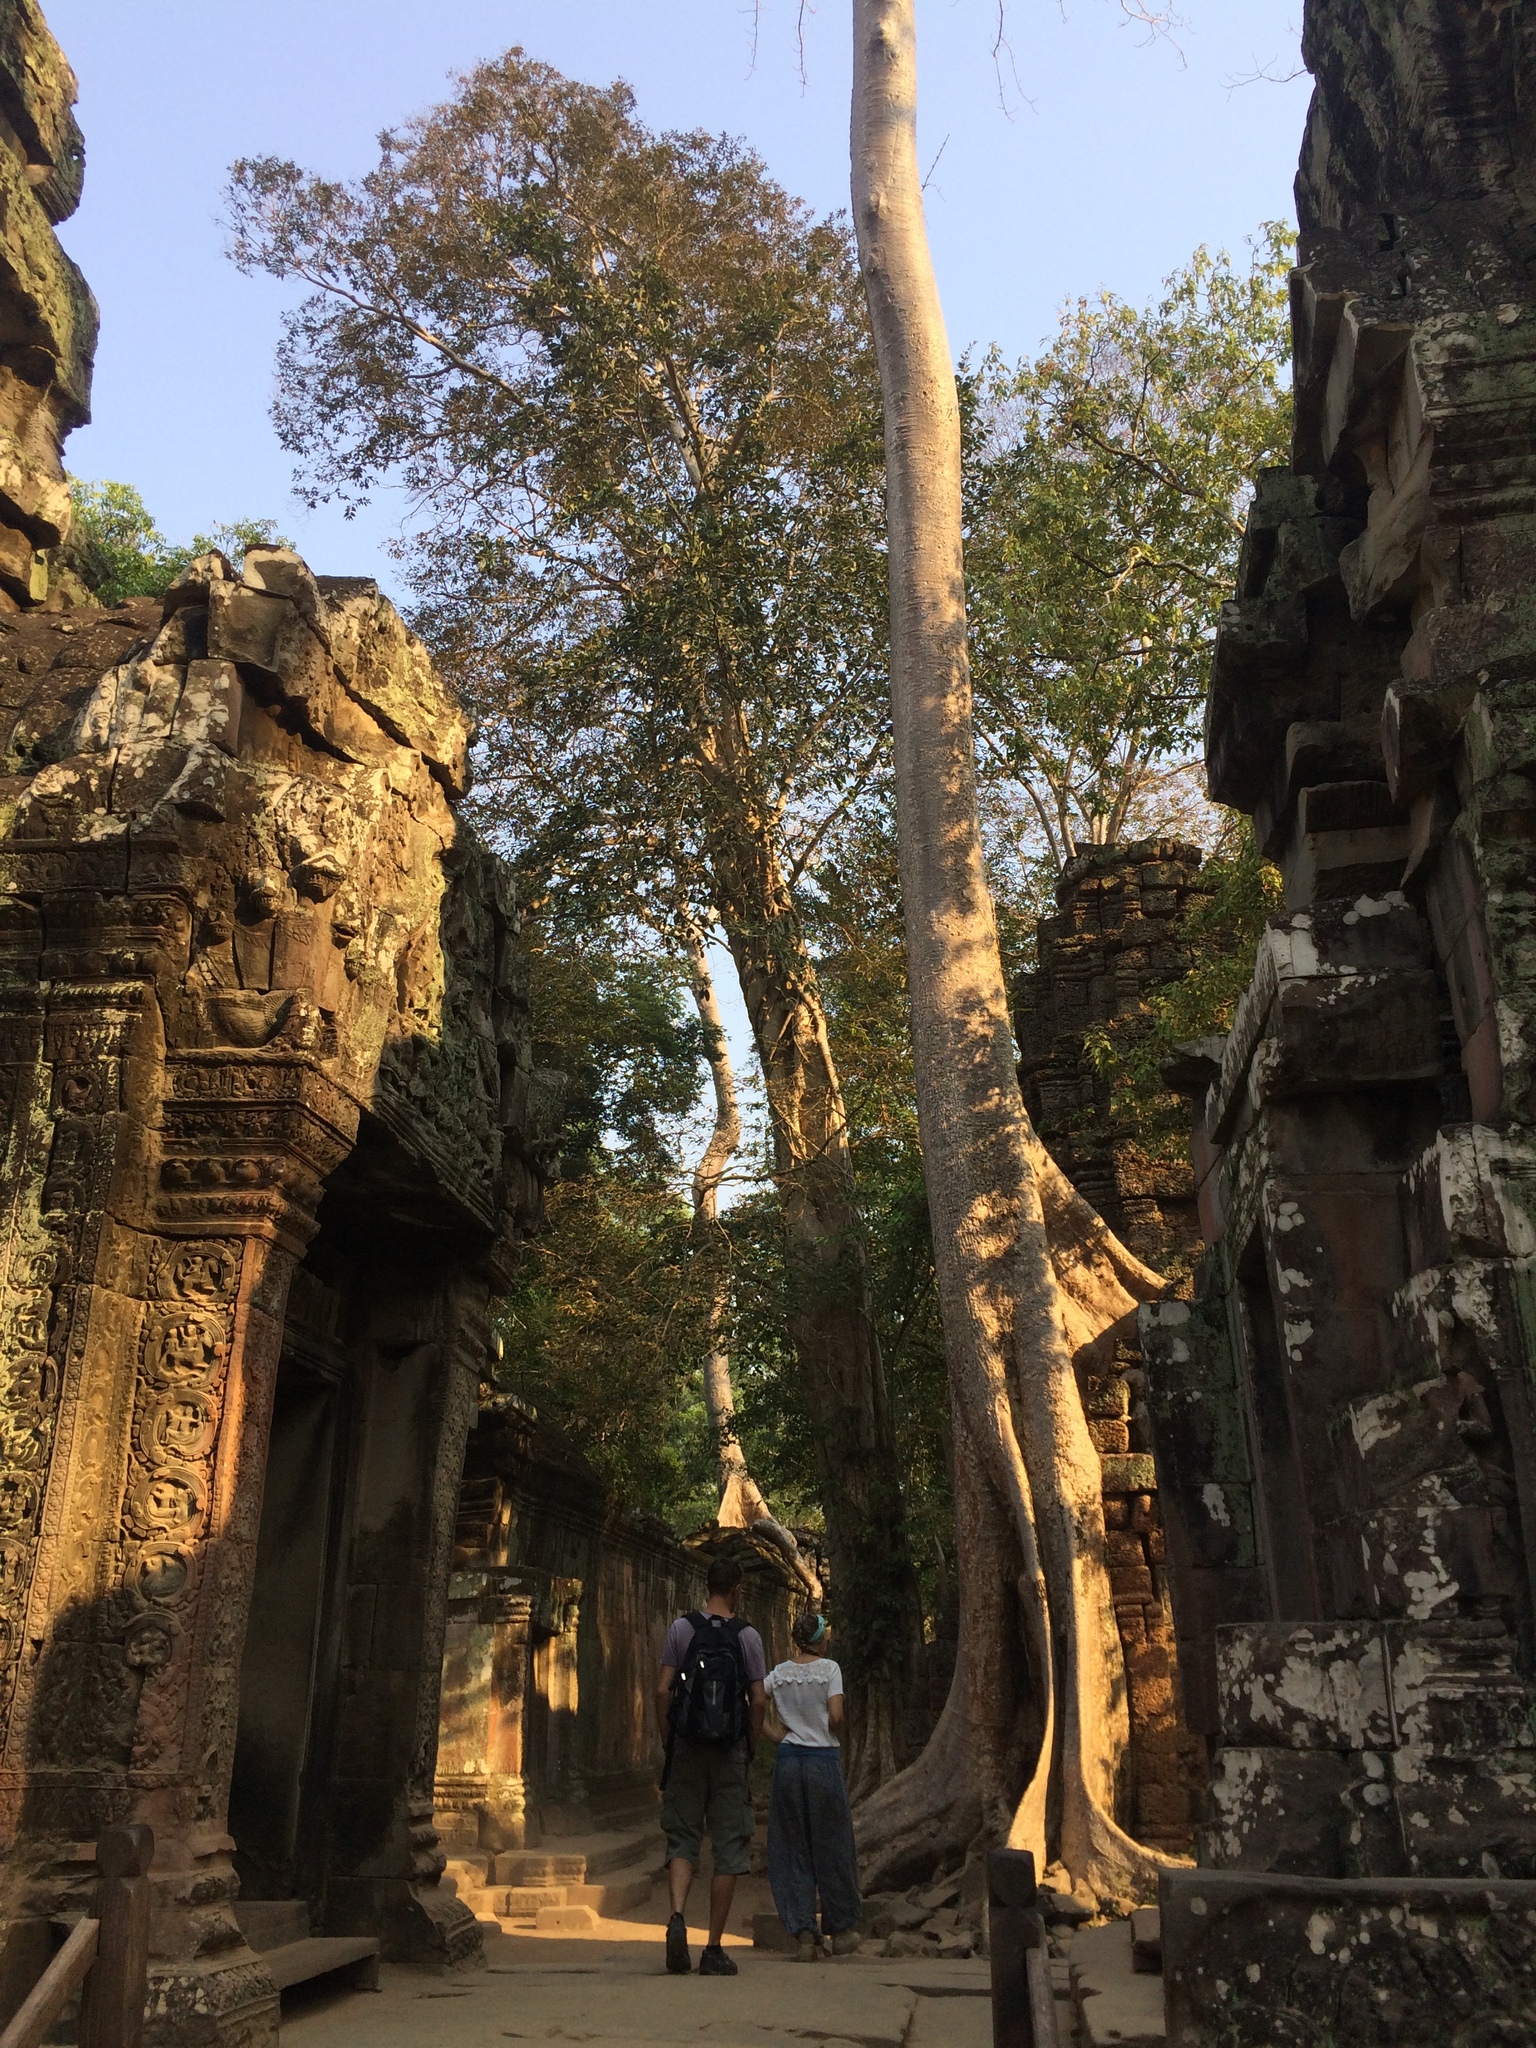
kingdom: Plantae
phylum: Tracheophyta
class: Magnoliopsida
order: Cucurbitales
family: Tetramelaceae
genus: Tetrameles
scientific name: Tetrameles nudiflora
